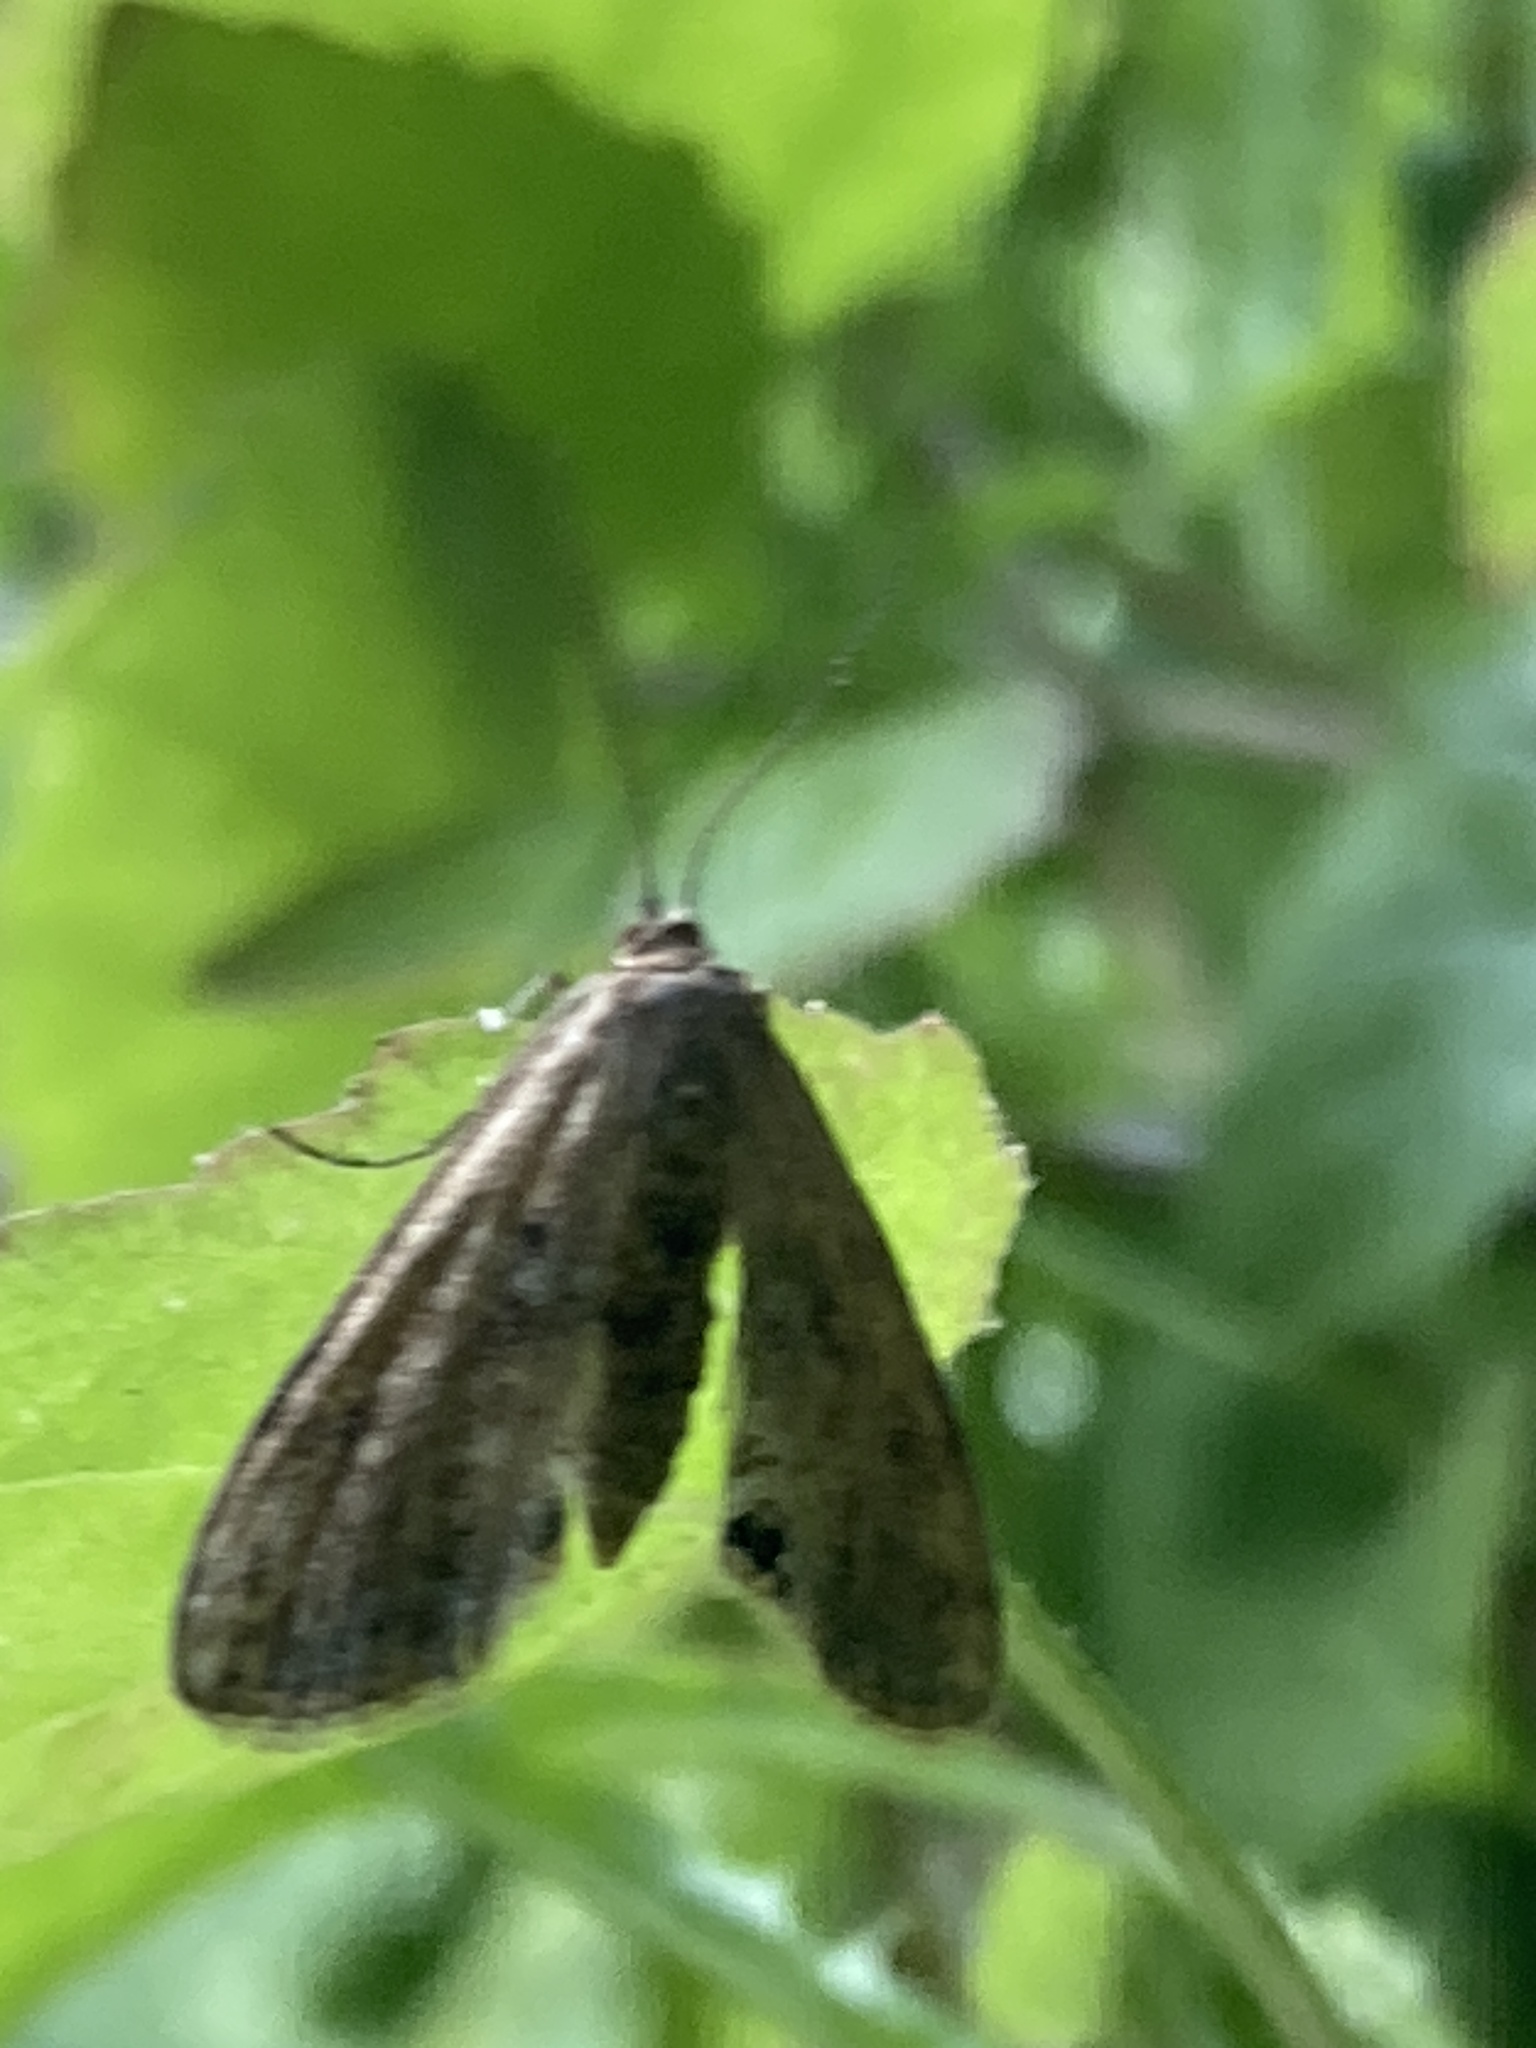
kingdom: Animalia
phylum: Arthropoda
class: Insecta
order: Lepidoptera
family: Crambidae
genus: Cataclysta
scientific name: Cataclysta lemnata
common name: Small china-mark
